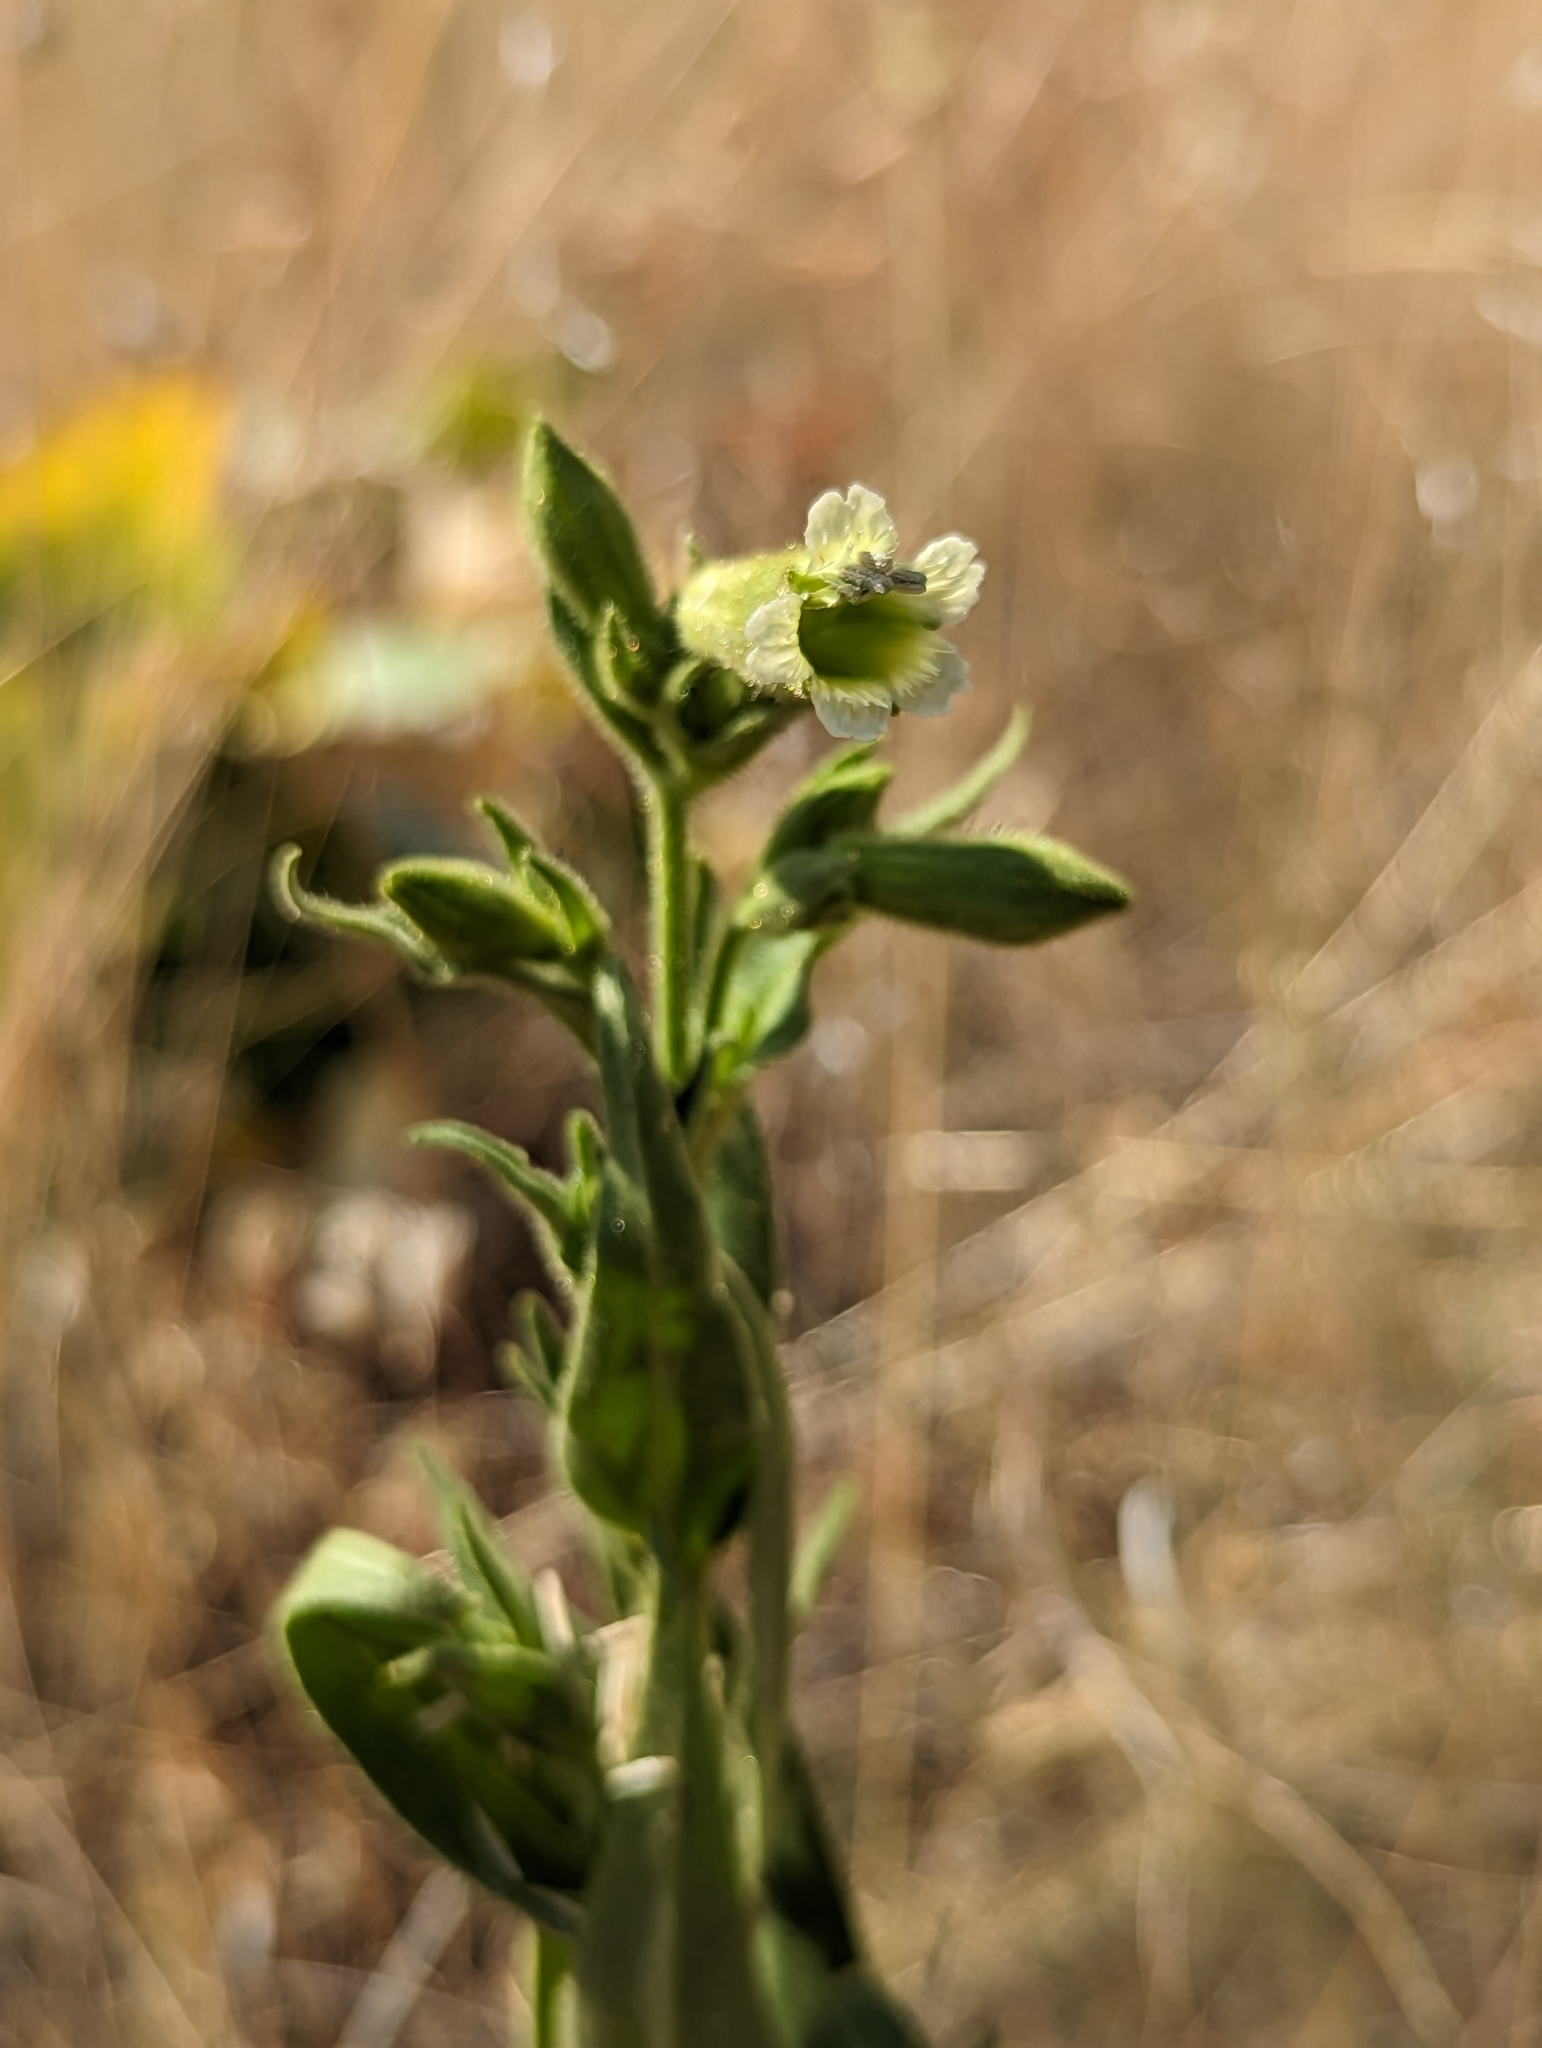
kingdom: Plantae
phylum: Tracheophyta
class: Magnoliopsida
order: Caryophyllales
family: Caryophyllaceae
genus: Silene
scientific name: Silene spaldingii
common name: Spalding's campion
